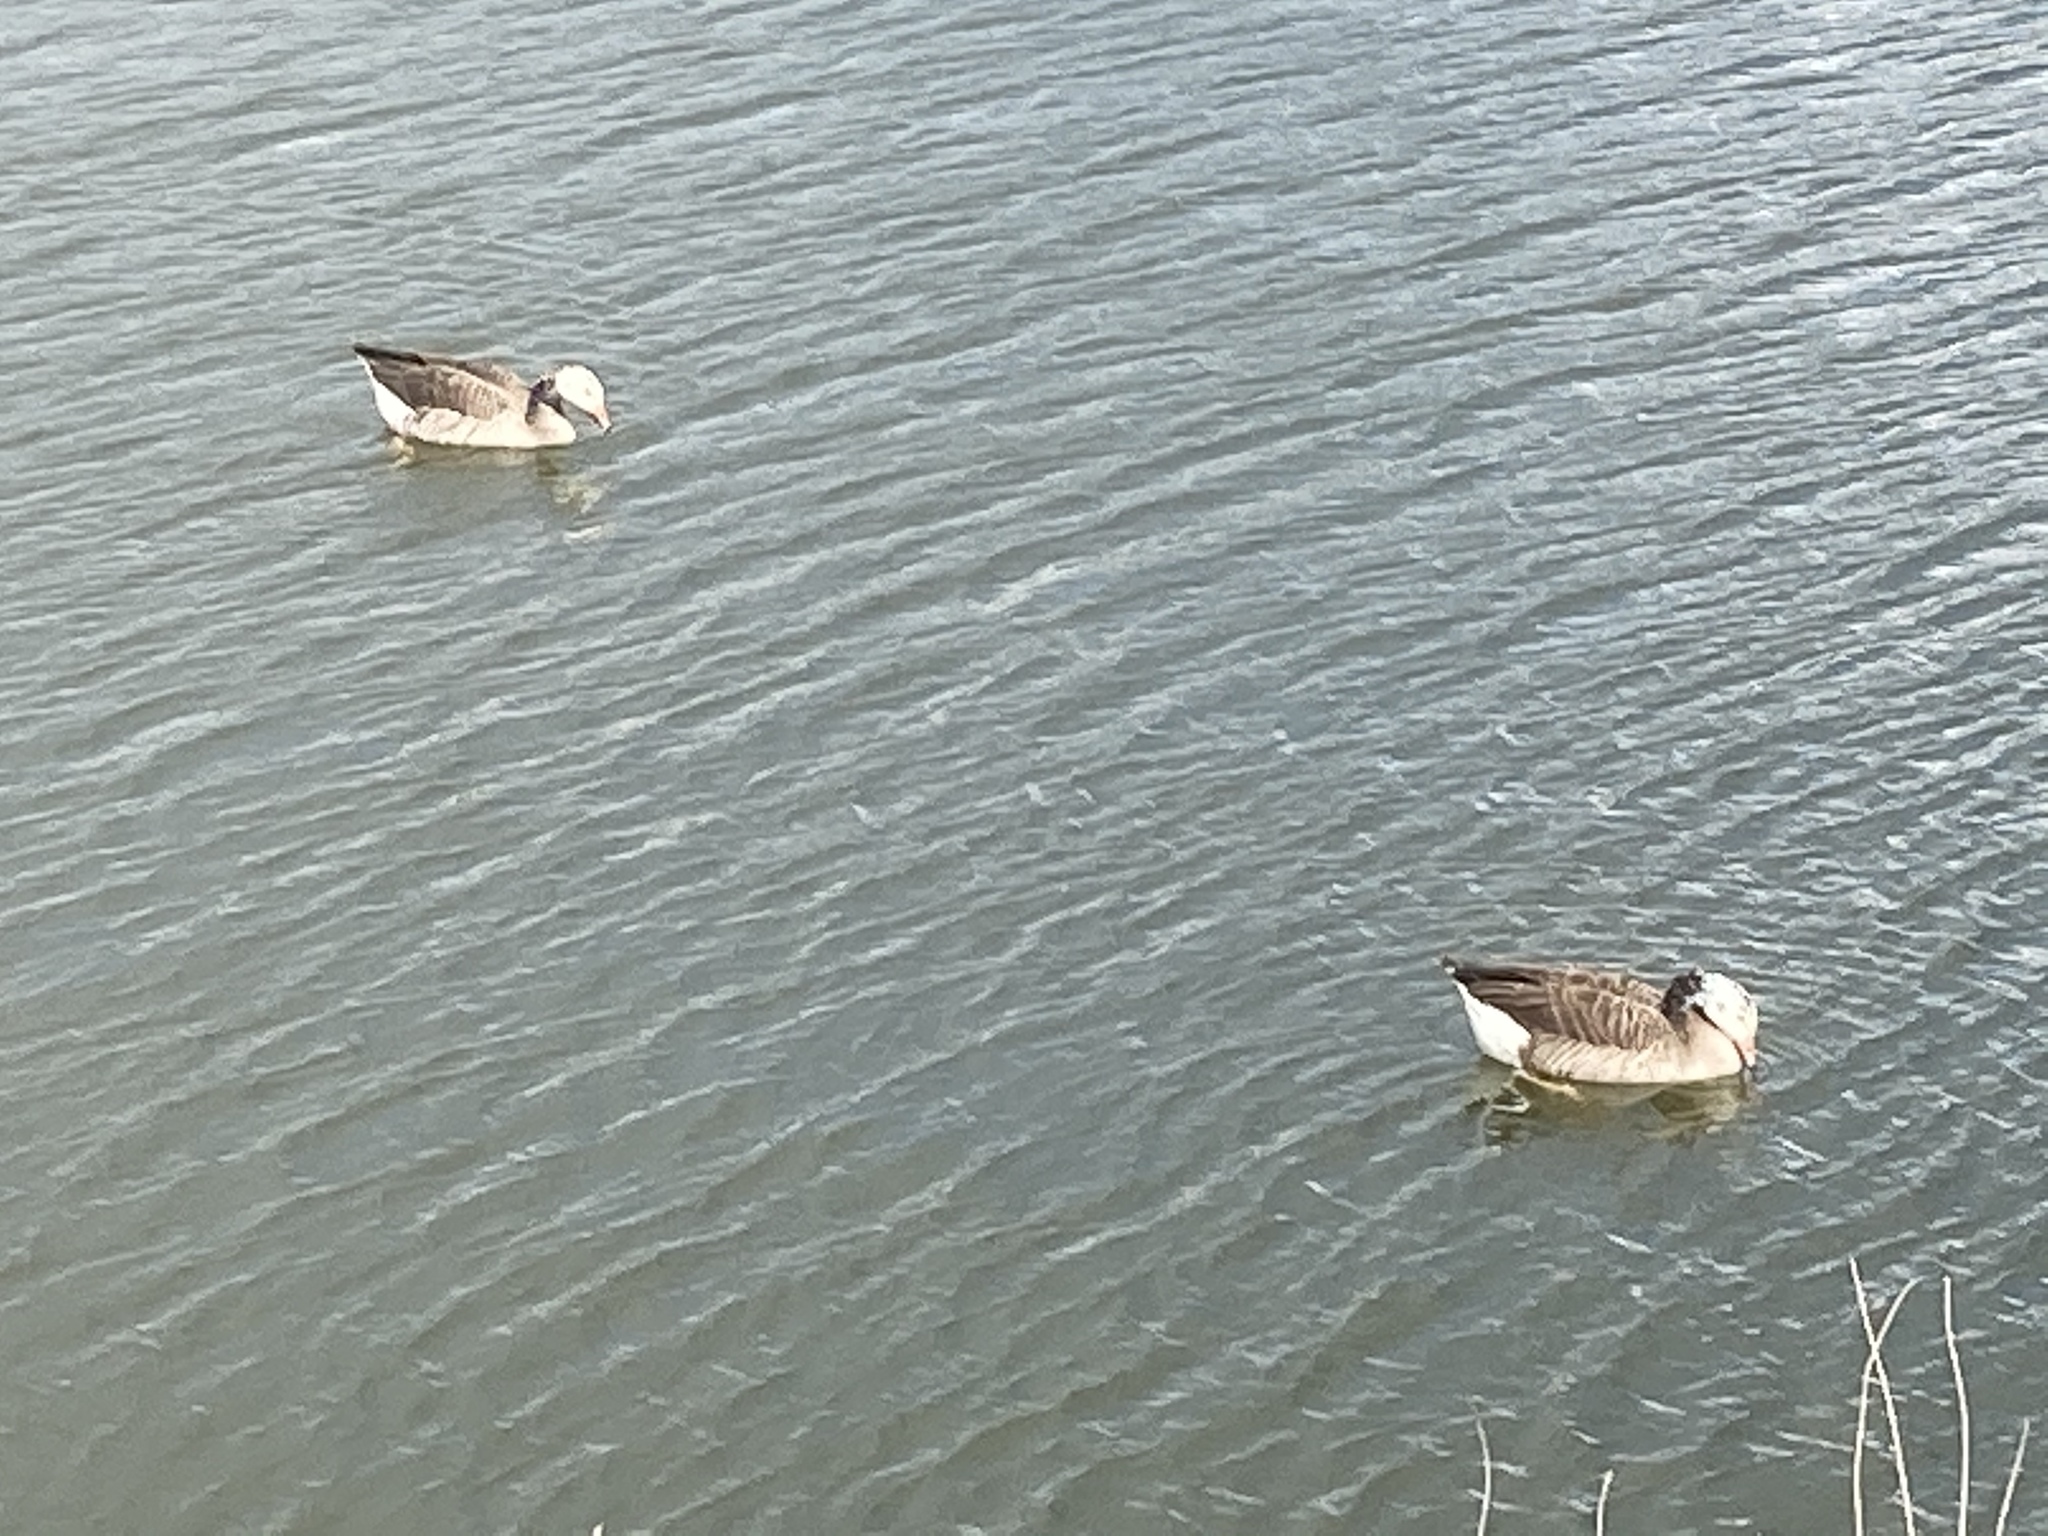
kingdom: Animalia
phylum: Chordata
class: Aves
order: Anseriformes
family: Anatidae
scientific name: Anatidae
